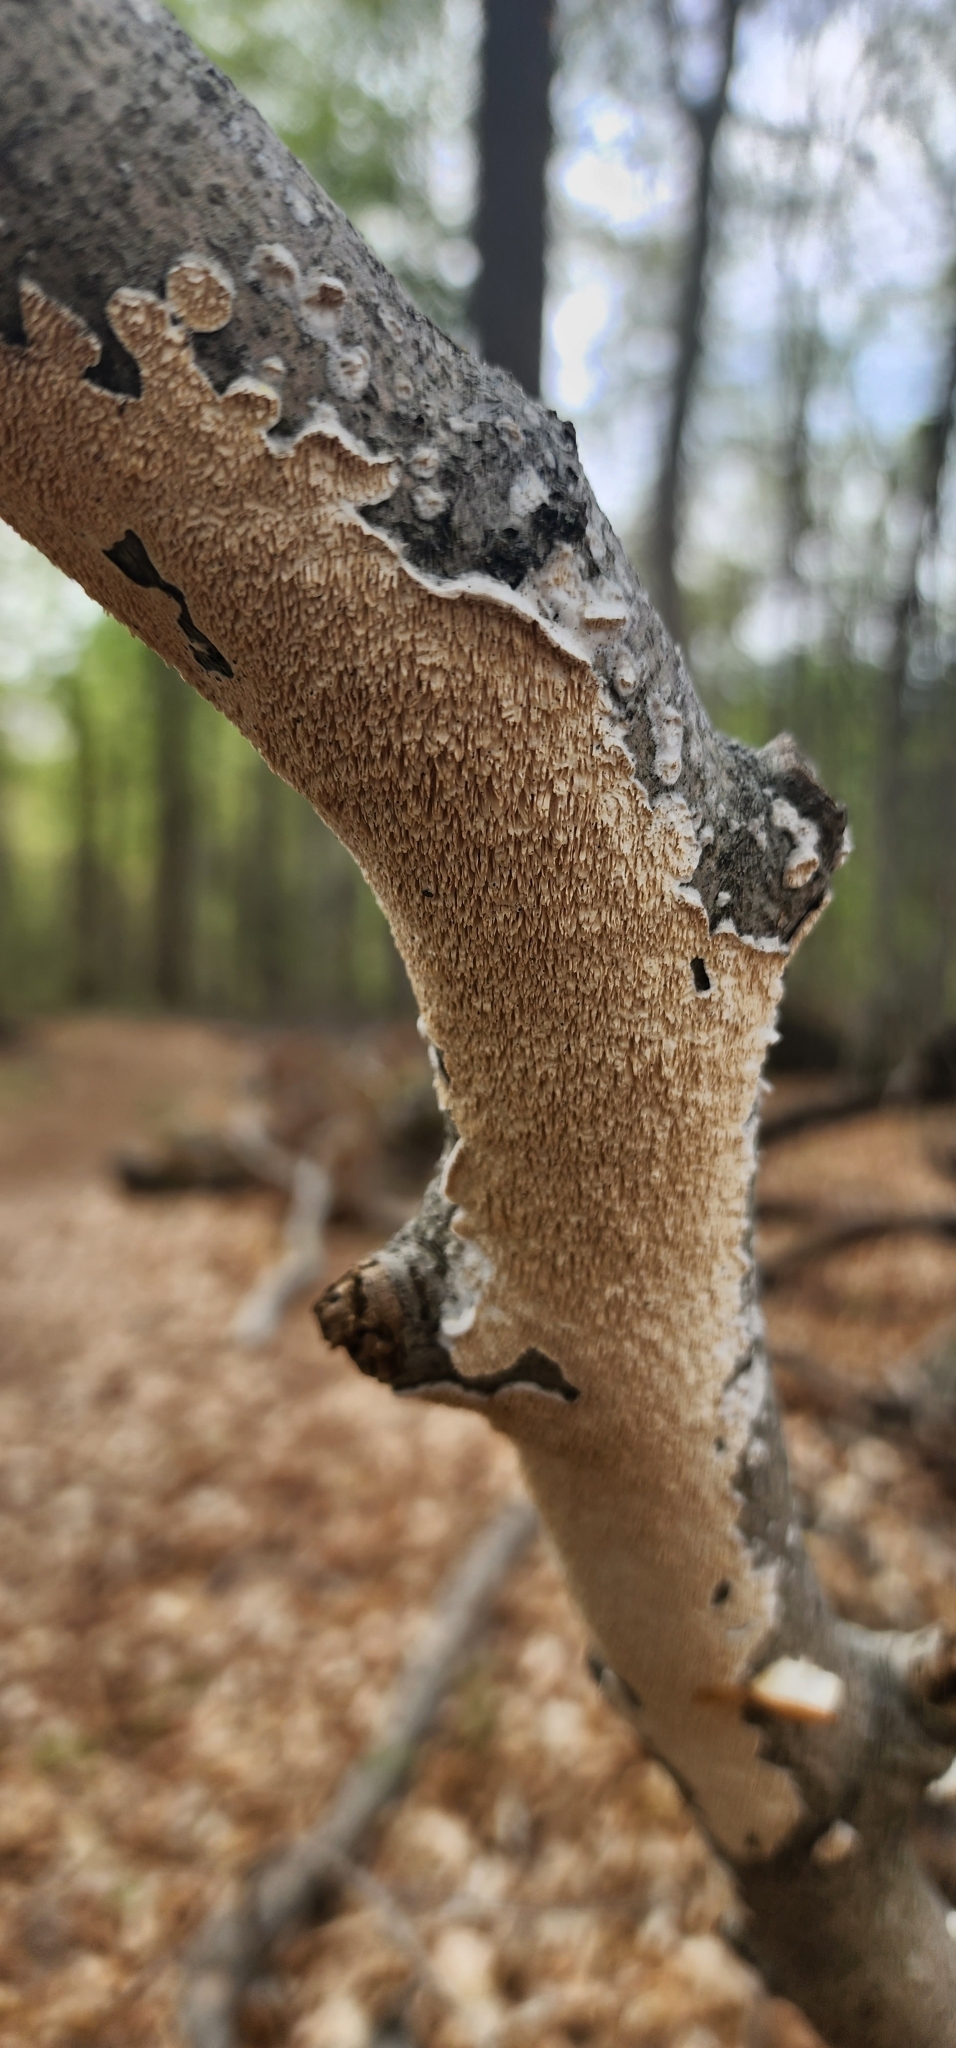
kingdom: Fungi
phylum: Basidiomycota
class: Agaricomycetes
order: Polyporales
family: Irpicaceae
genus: Irpex
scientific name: Irpex lacteus
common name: Milk-white toothed polypore
